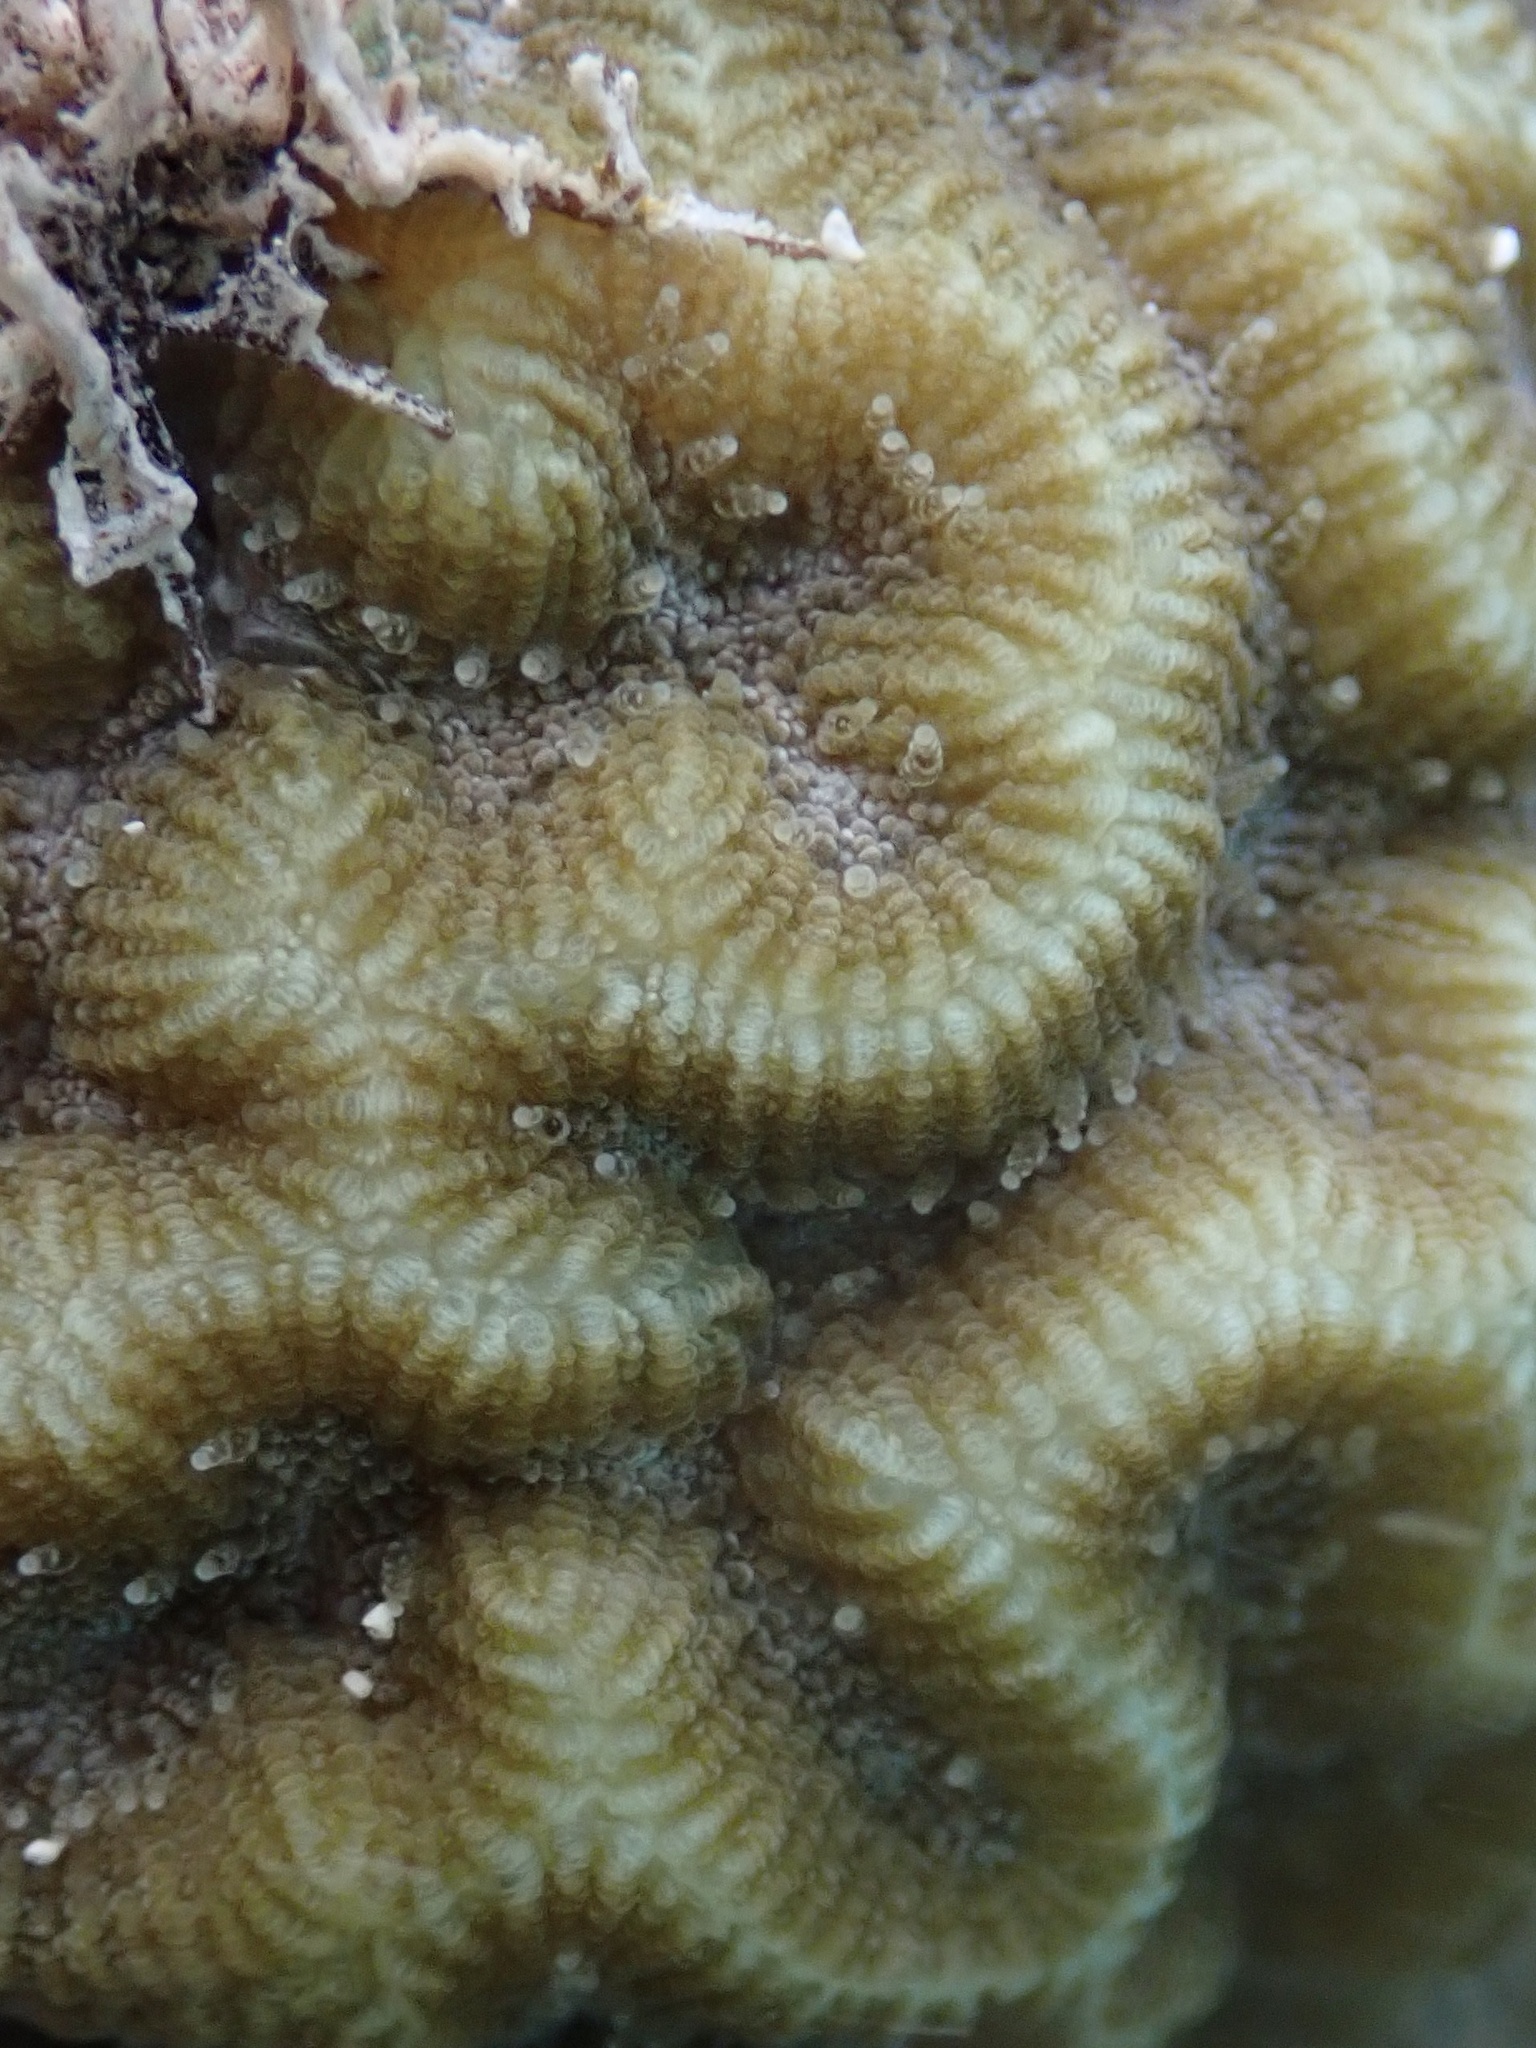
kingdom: Animalia
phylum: Cnidaria
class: Anthozoa
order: Scleractinia
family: Faviidae
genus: Pseudodiploria
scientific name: Pseudodiploria strigosa
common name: Symmetrical brain coral
